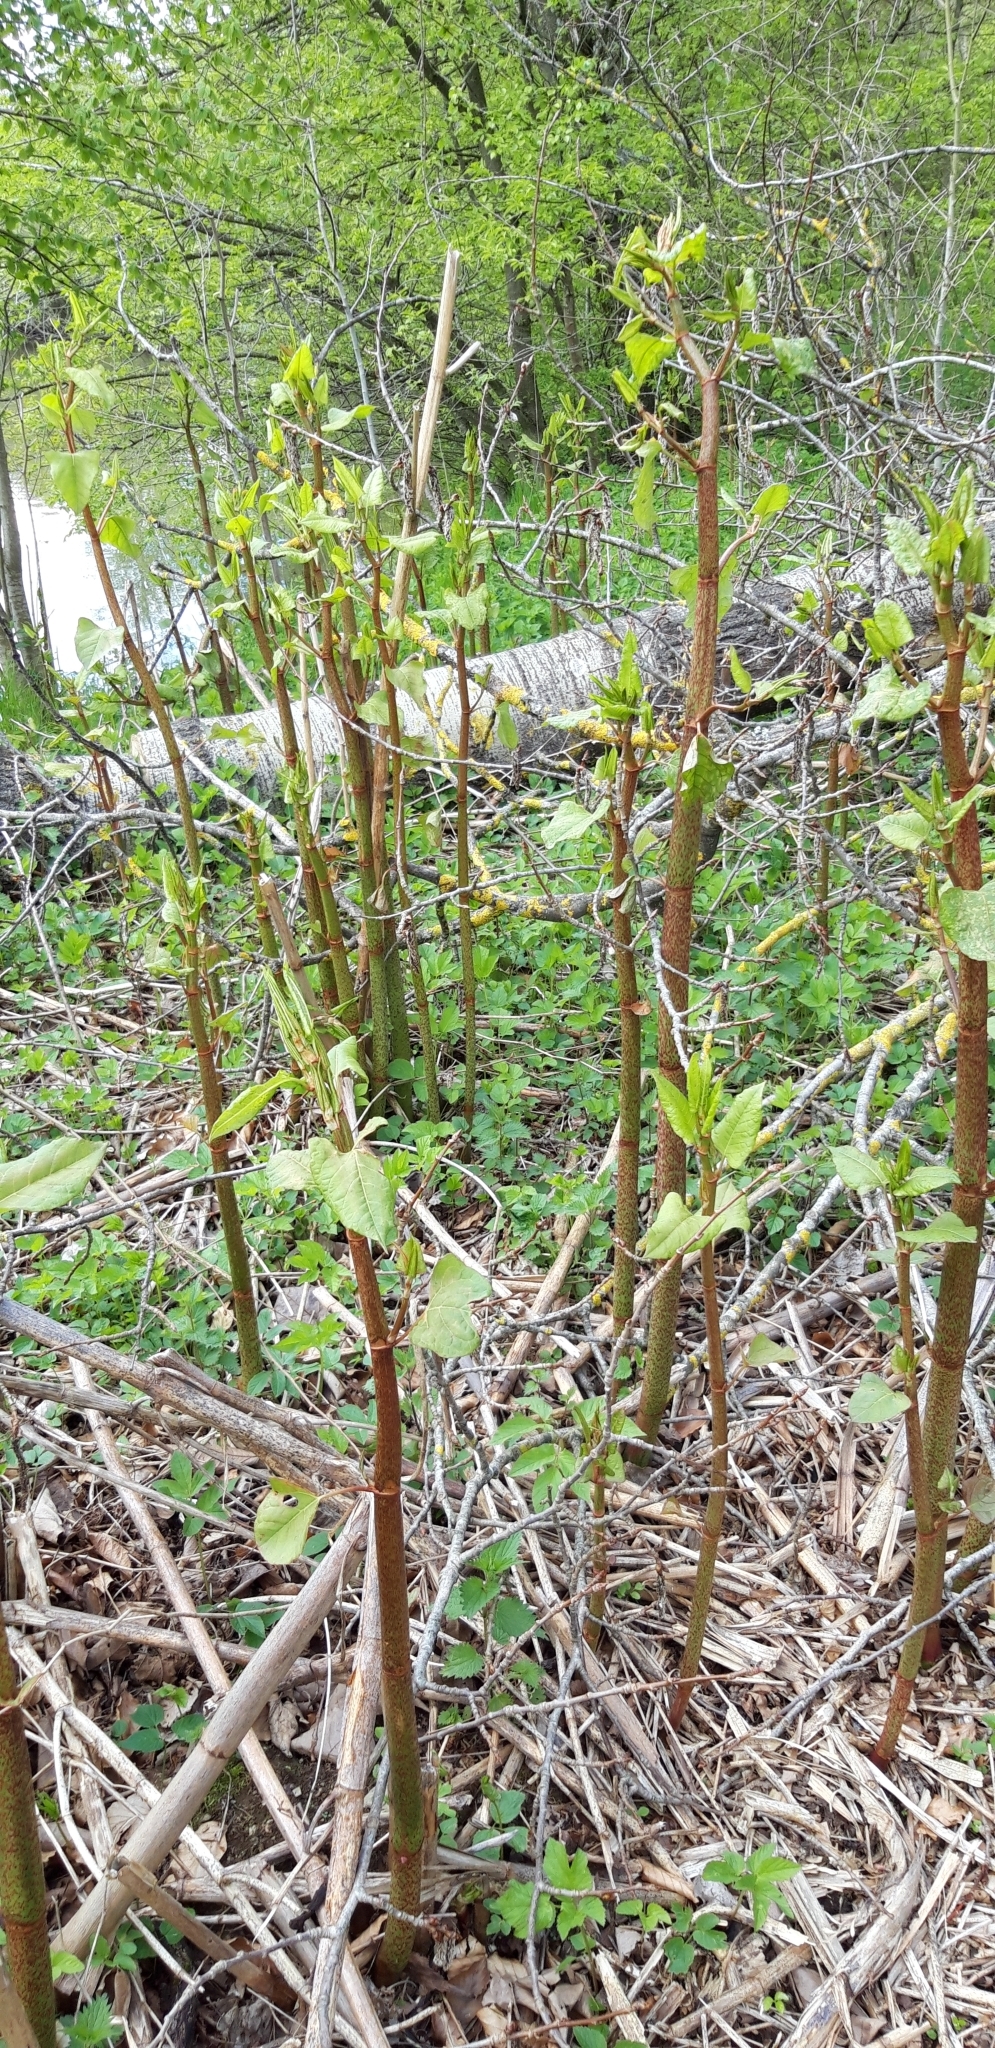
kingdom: Plantae
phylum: Tracheophyta
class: Magnoliopsida
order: Caryophyllales
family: Polygonaceae
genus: Reynoutria
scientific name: Reynoutria japonica
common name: Japanese knotweed
